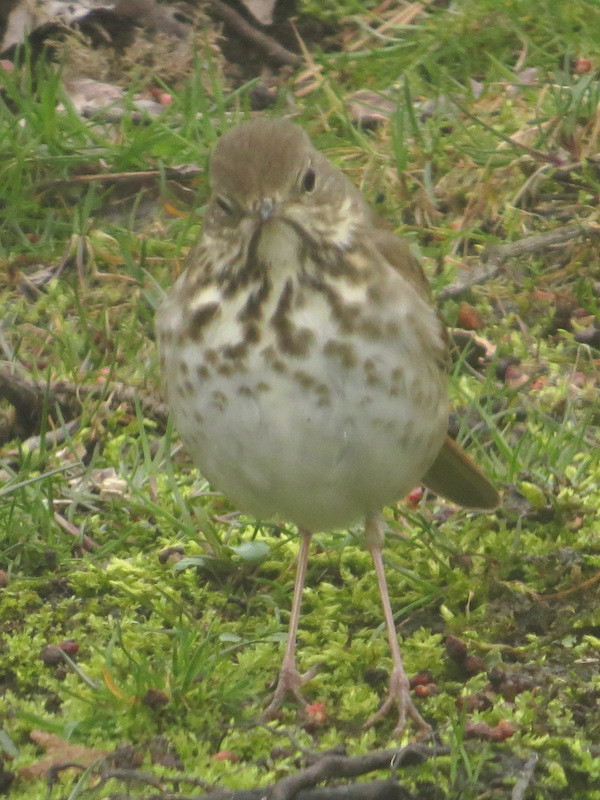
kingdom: Animalia
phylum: Chordata
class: Aves
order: Passeriformes
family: Turdidae
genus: Catharus
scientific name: Catharus guttatus
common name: Hermit thrush
